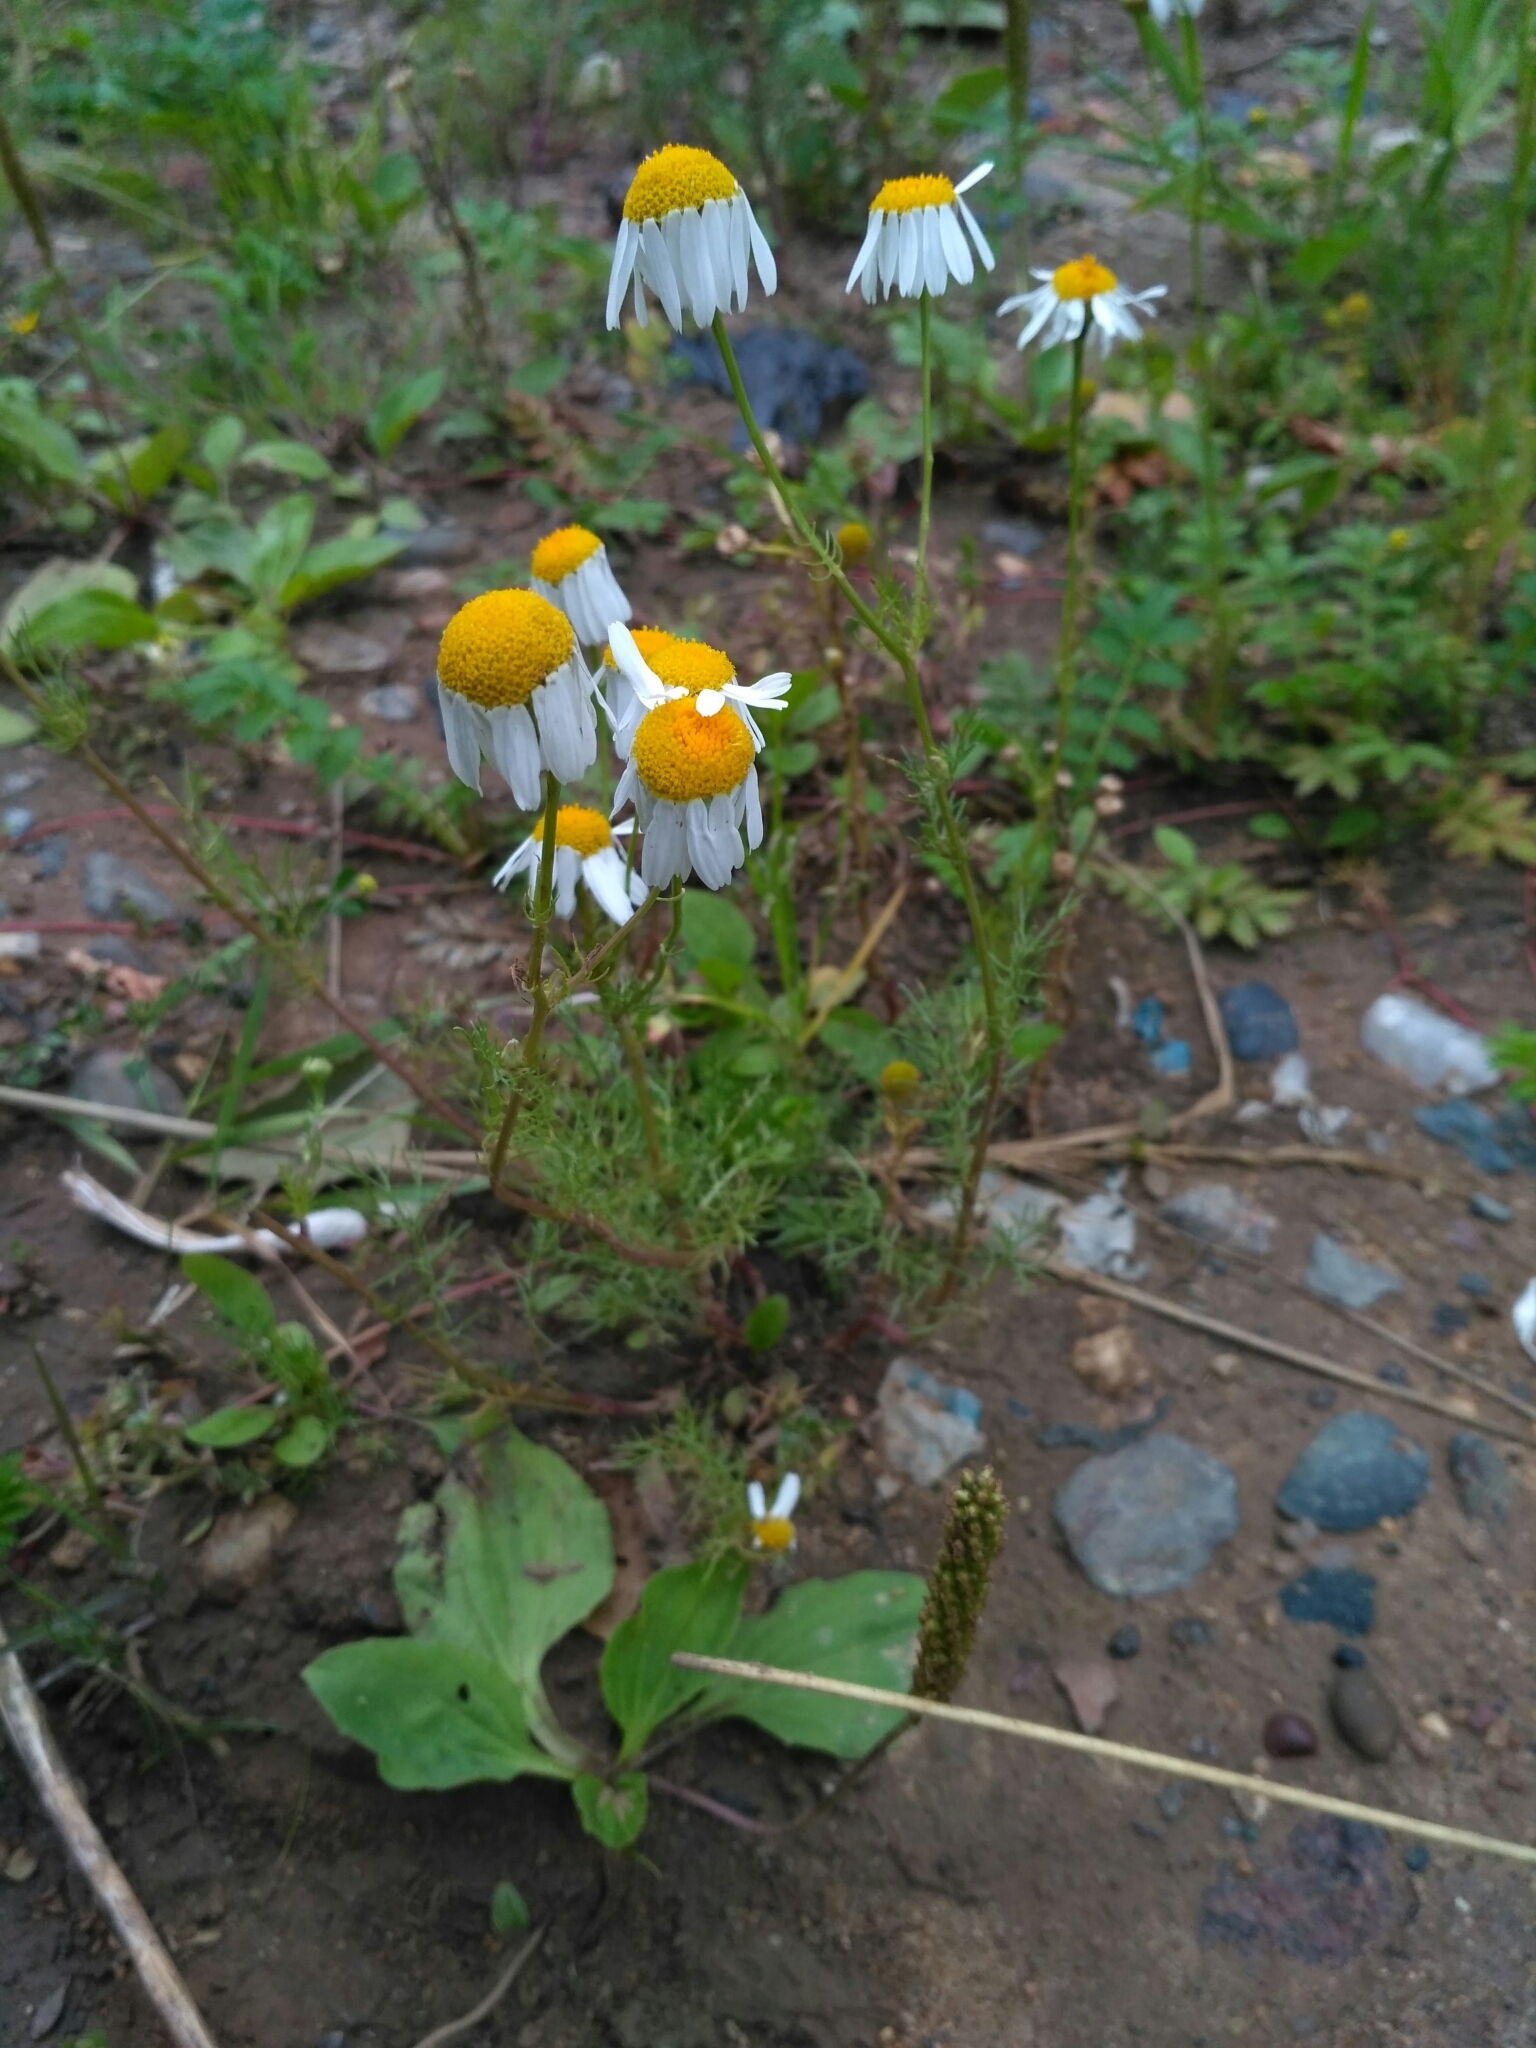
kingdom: Plantae
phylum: Tracheophyta
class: Magnoliopsida
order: Asterales
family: Asteraceae
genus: Tripleurospermum
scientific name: Tripleurospermum inodorum
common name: Scentless mayweed
